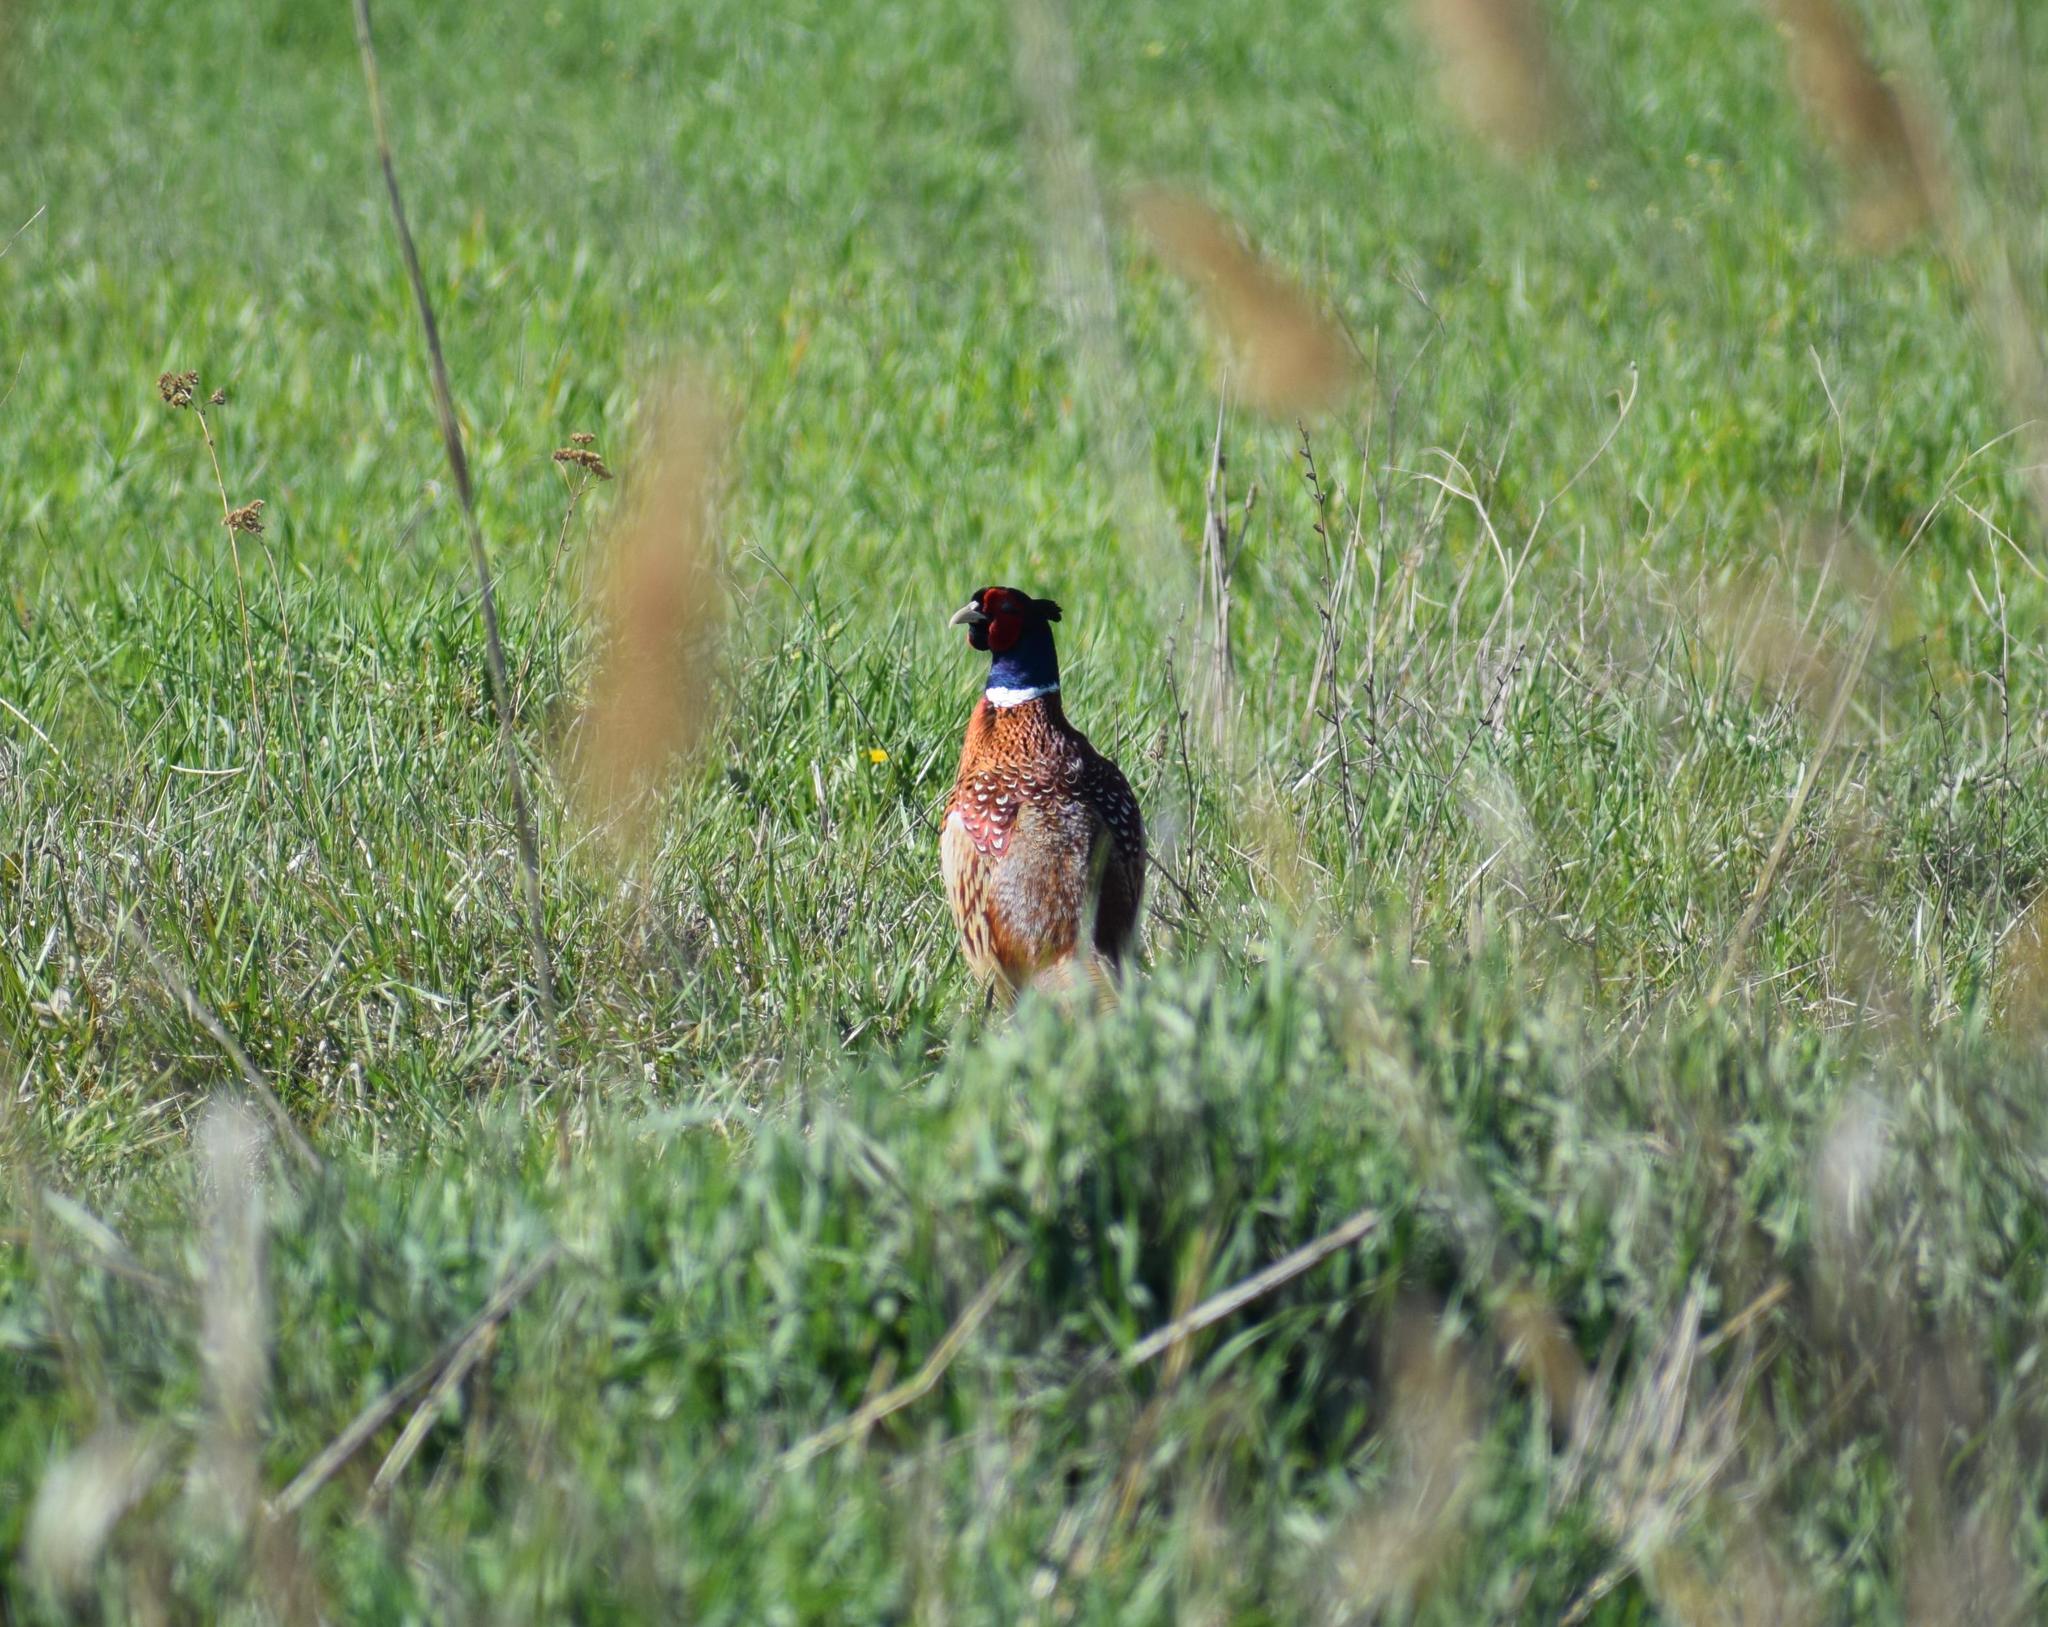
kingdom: Animalia
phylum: Chordata
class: Aves
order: Galliformes
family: Phasianidae
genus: Phasianus
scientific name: Phasianus colchicus
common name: Common pheasant
